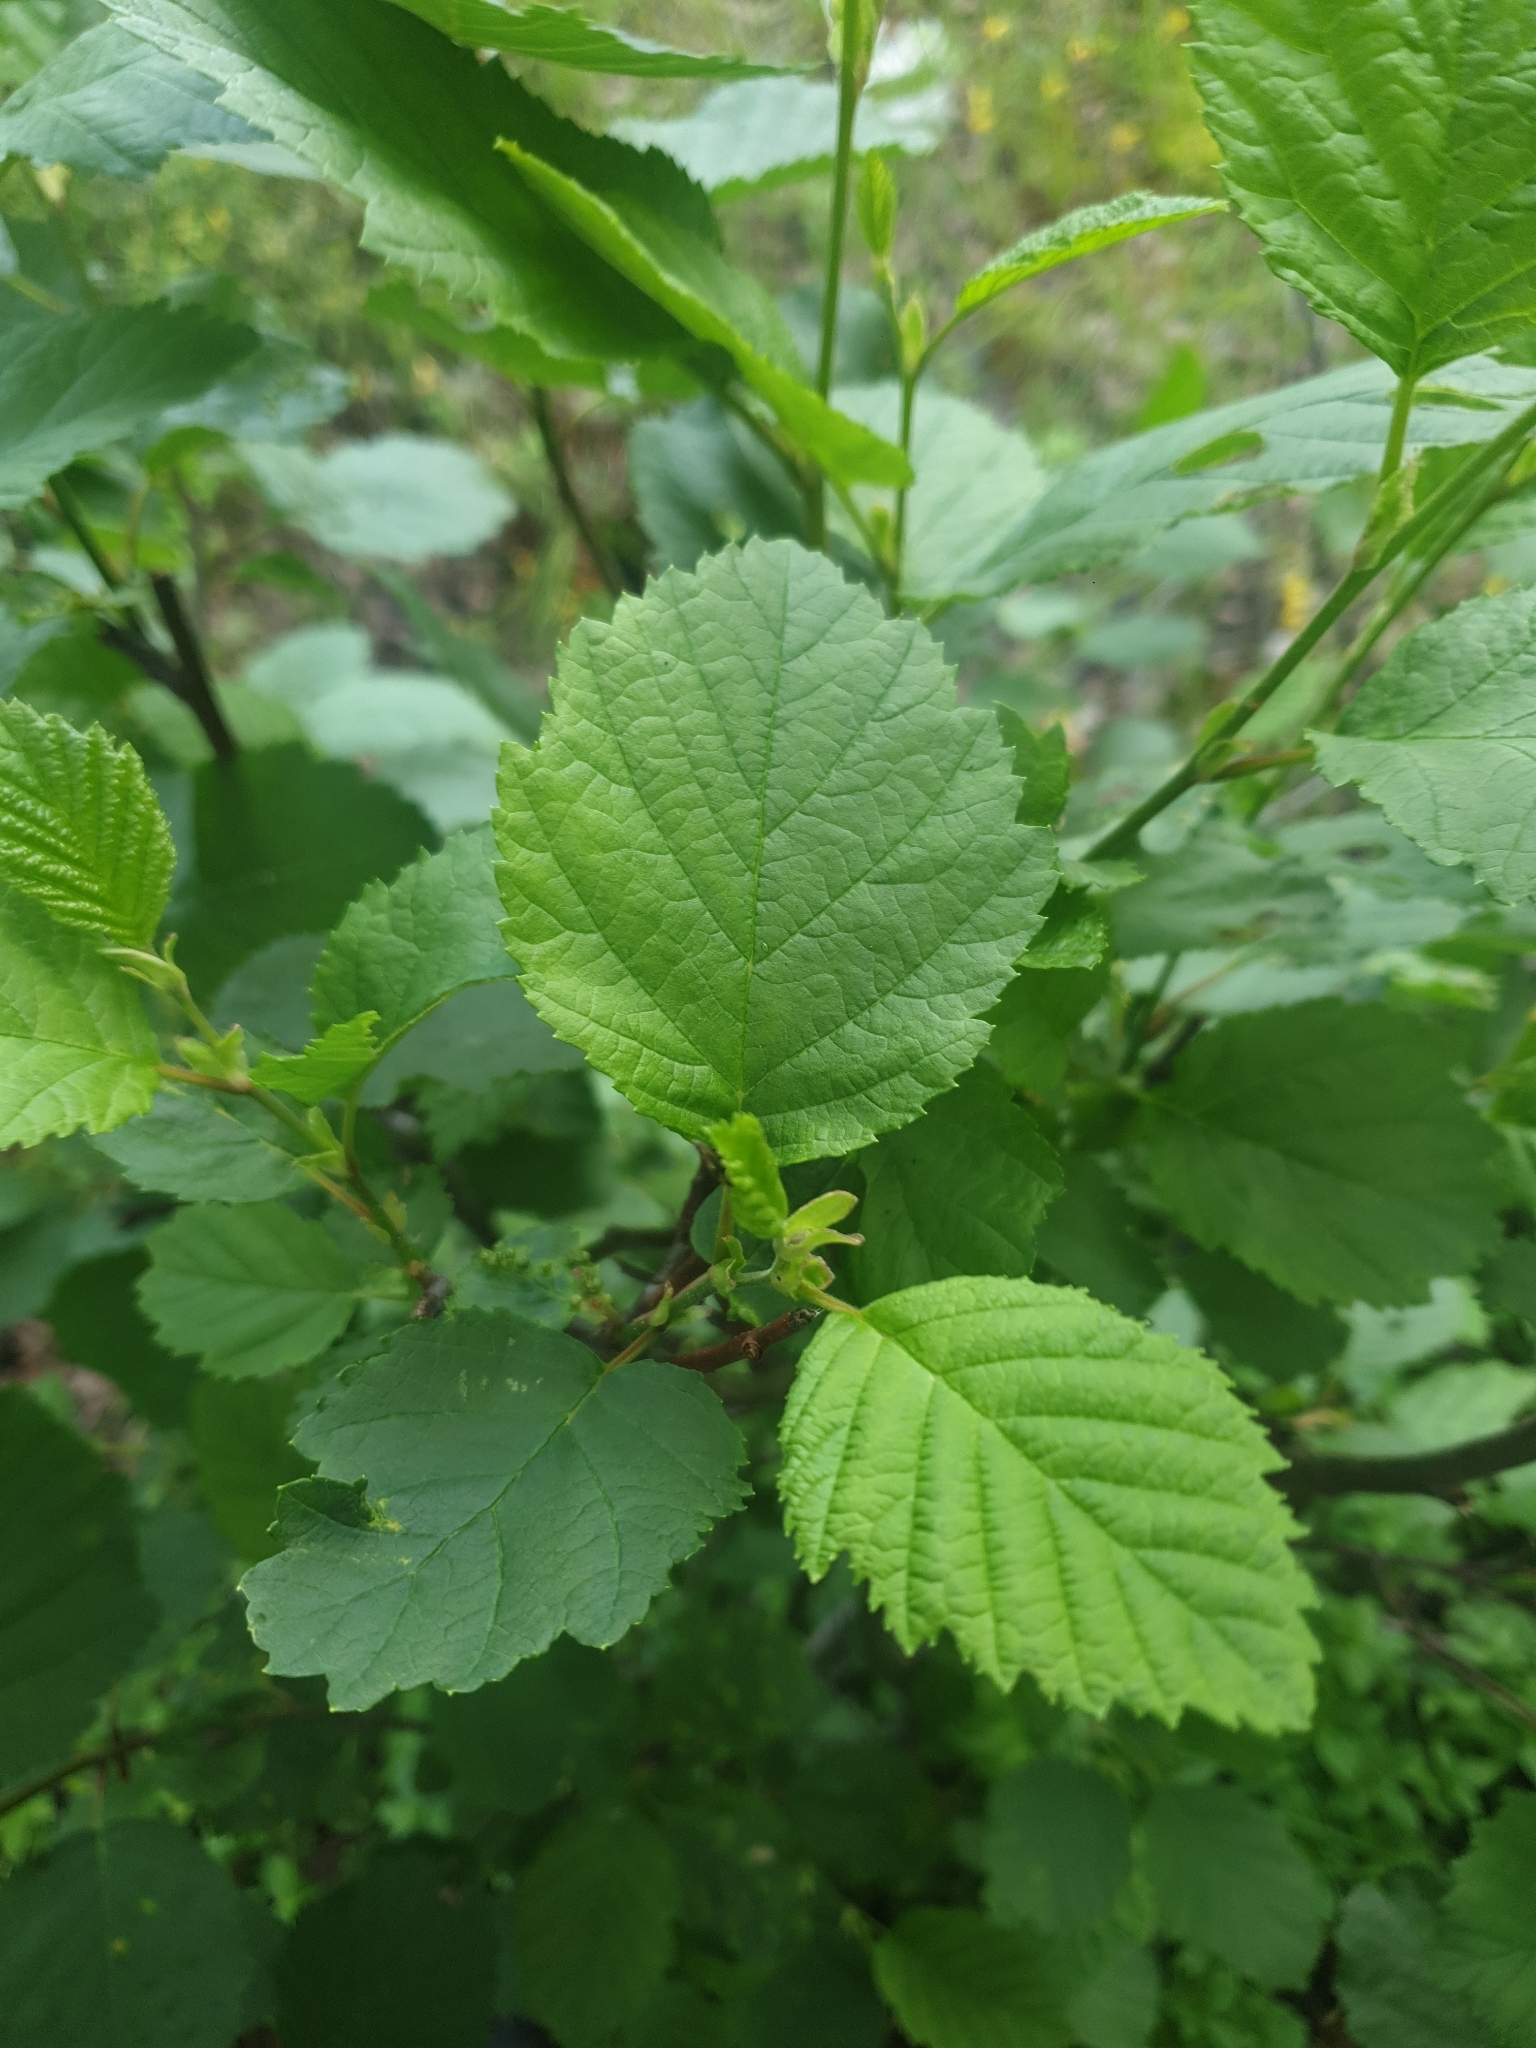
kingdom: Plantae
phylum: Tracheophyta
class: Magnoliopsida
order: Fagales
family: Betulaceae
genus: Alnus
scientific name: Alnus incana
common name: Grey alder
